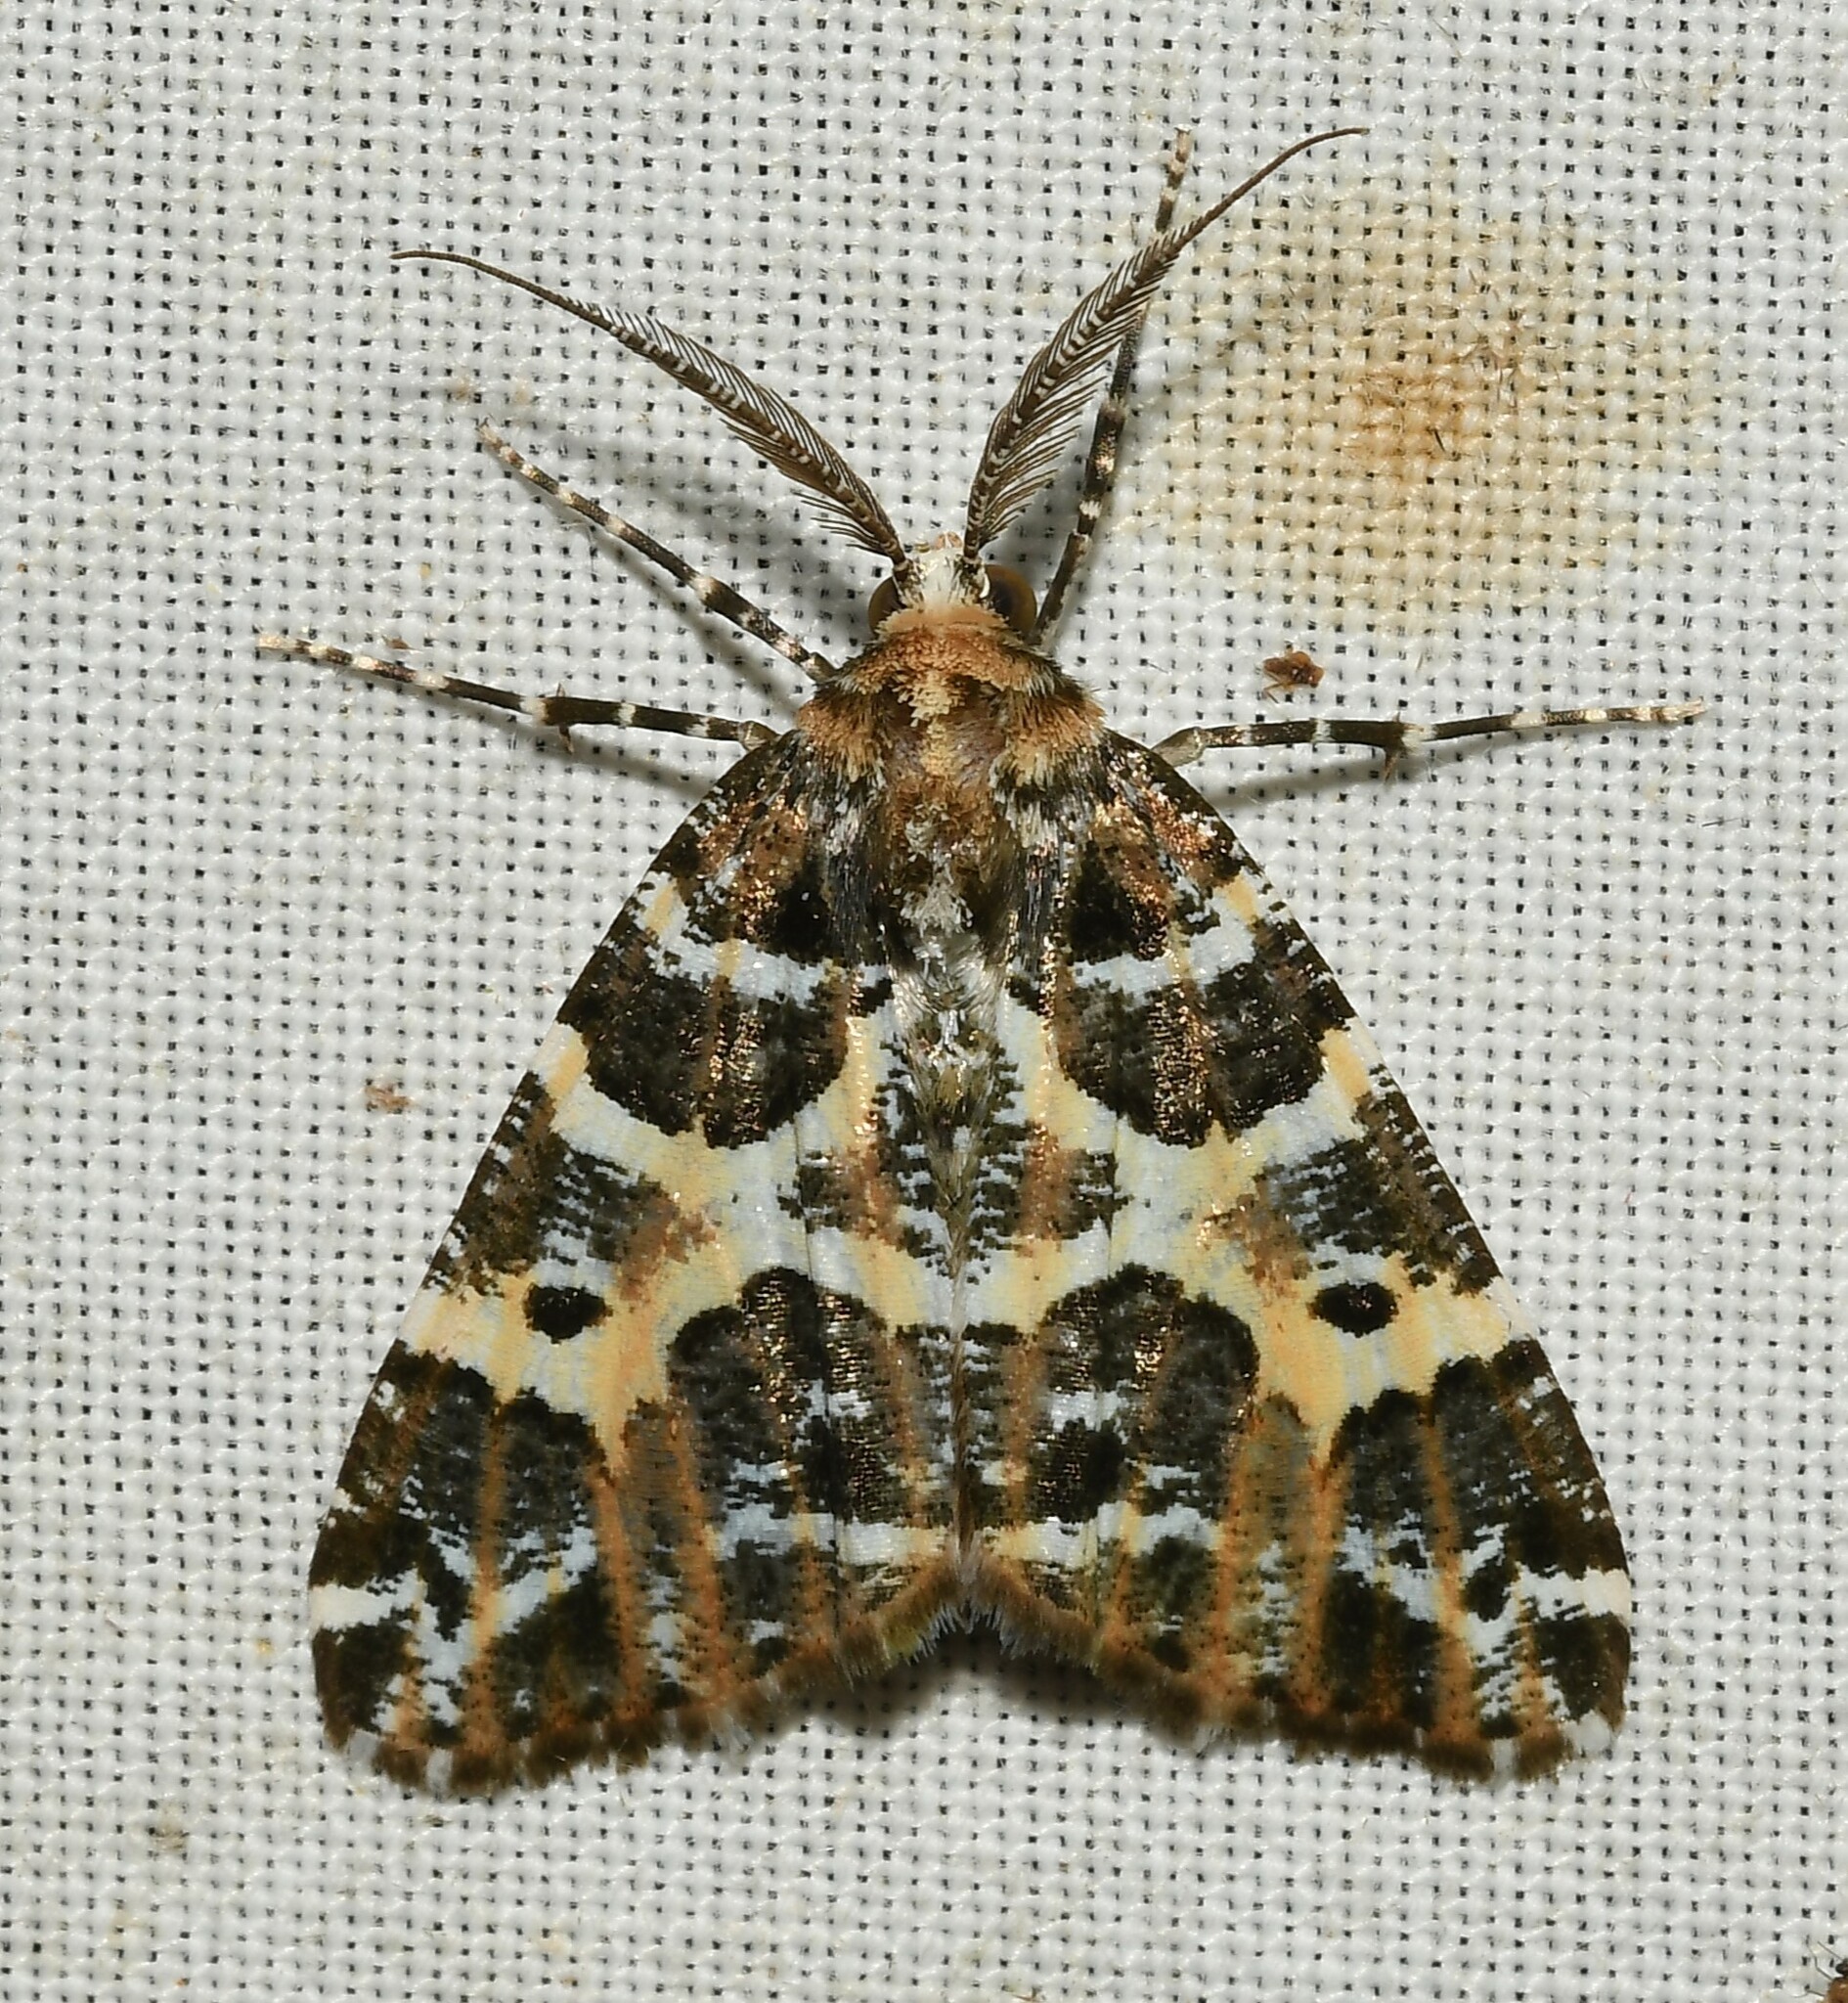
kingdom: Animalia
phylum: Arthropoda
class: Insecta
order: Lepidoptera
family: Geometridae
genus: Cargolia
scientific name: Cargolia arana
